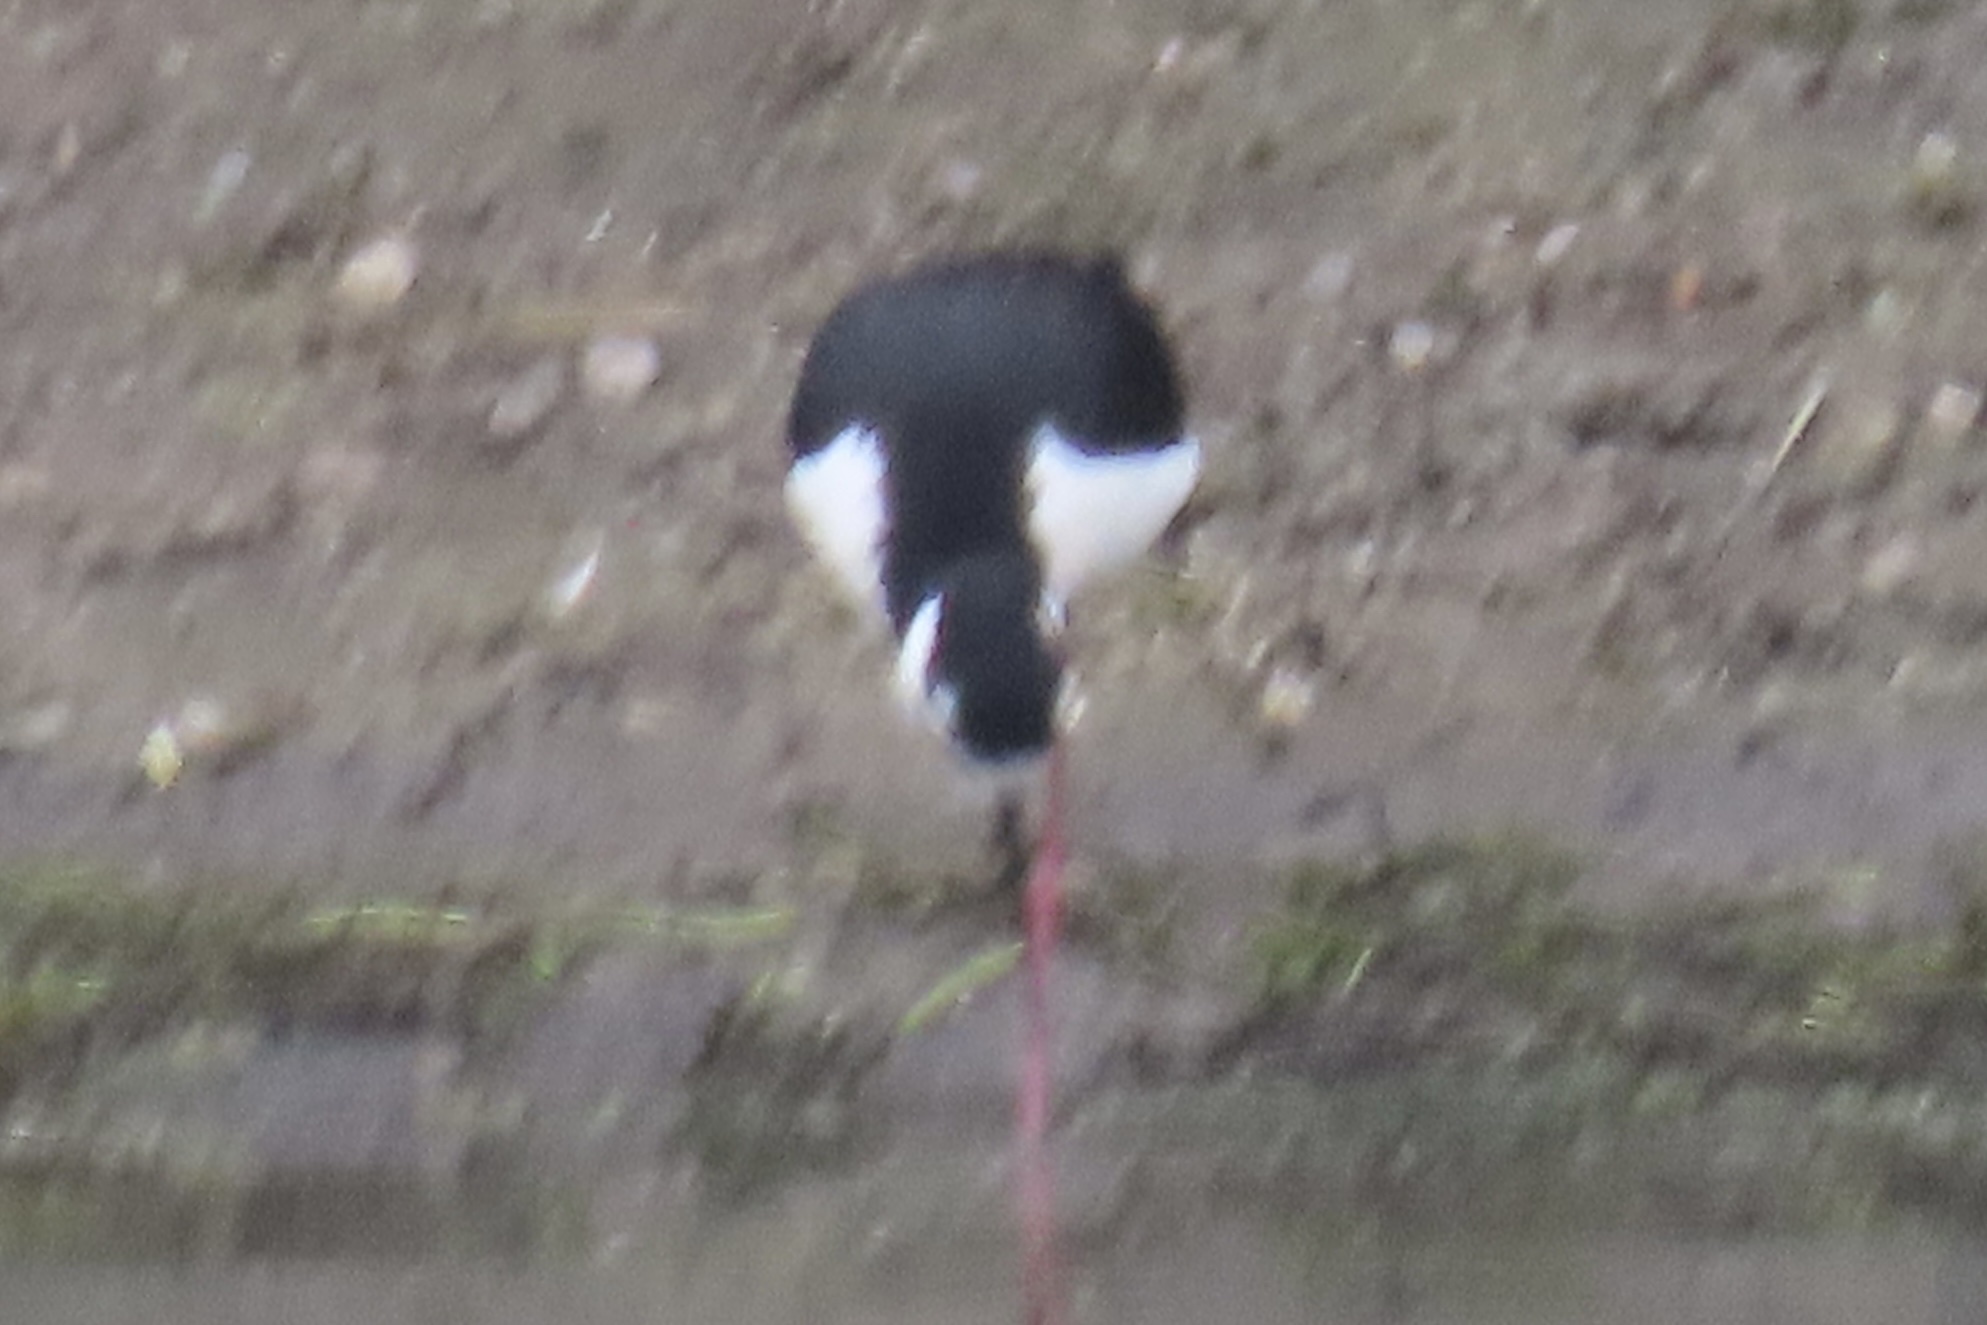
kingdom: Animalia
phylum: Chordata
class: Aves
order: Charadriiformes
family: Recurvirostridae
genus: Himantopus
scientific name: Himantopus mexicanus
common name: Black-necked stilt
